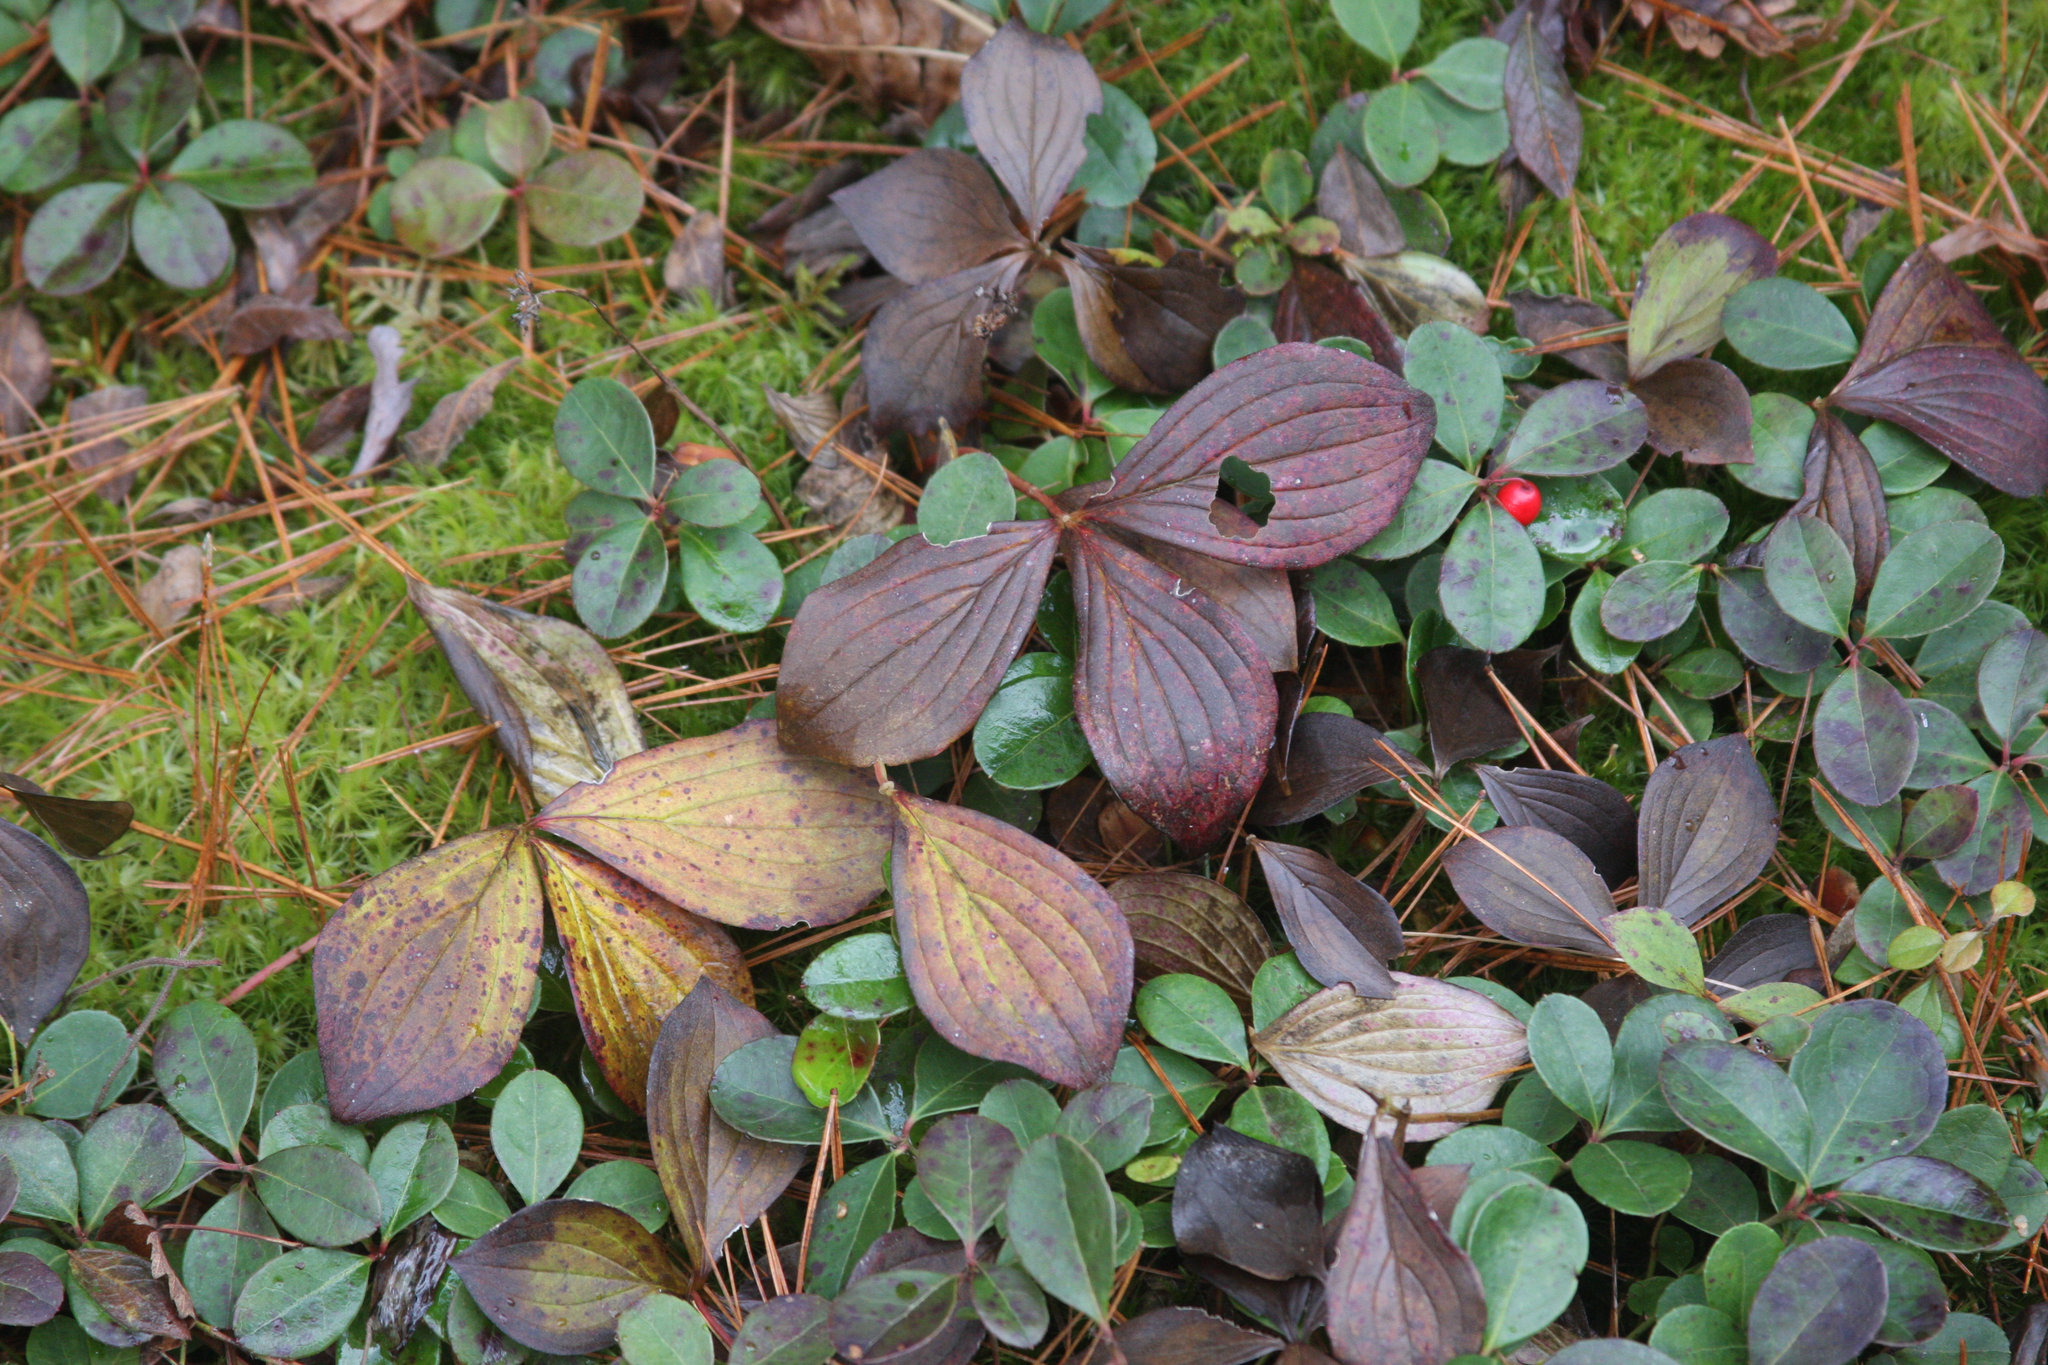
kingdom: Plantae
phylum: Tracheophyta
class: Magnoliopsida
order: Cornales
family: Cornaceae
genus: Cornus
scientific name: Cornus canadensis
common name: Creeping dogwood
